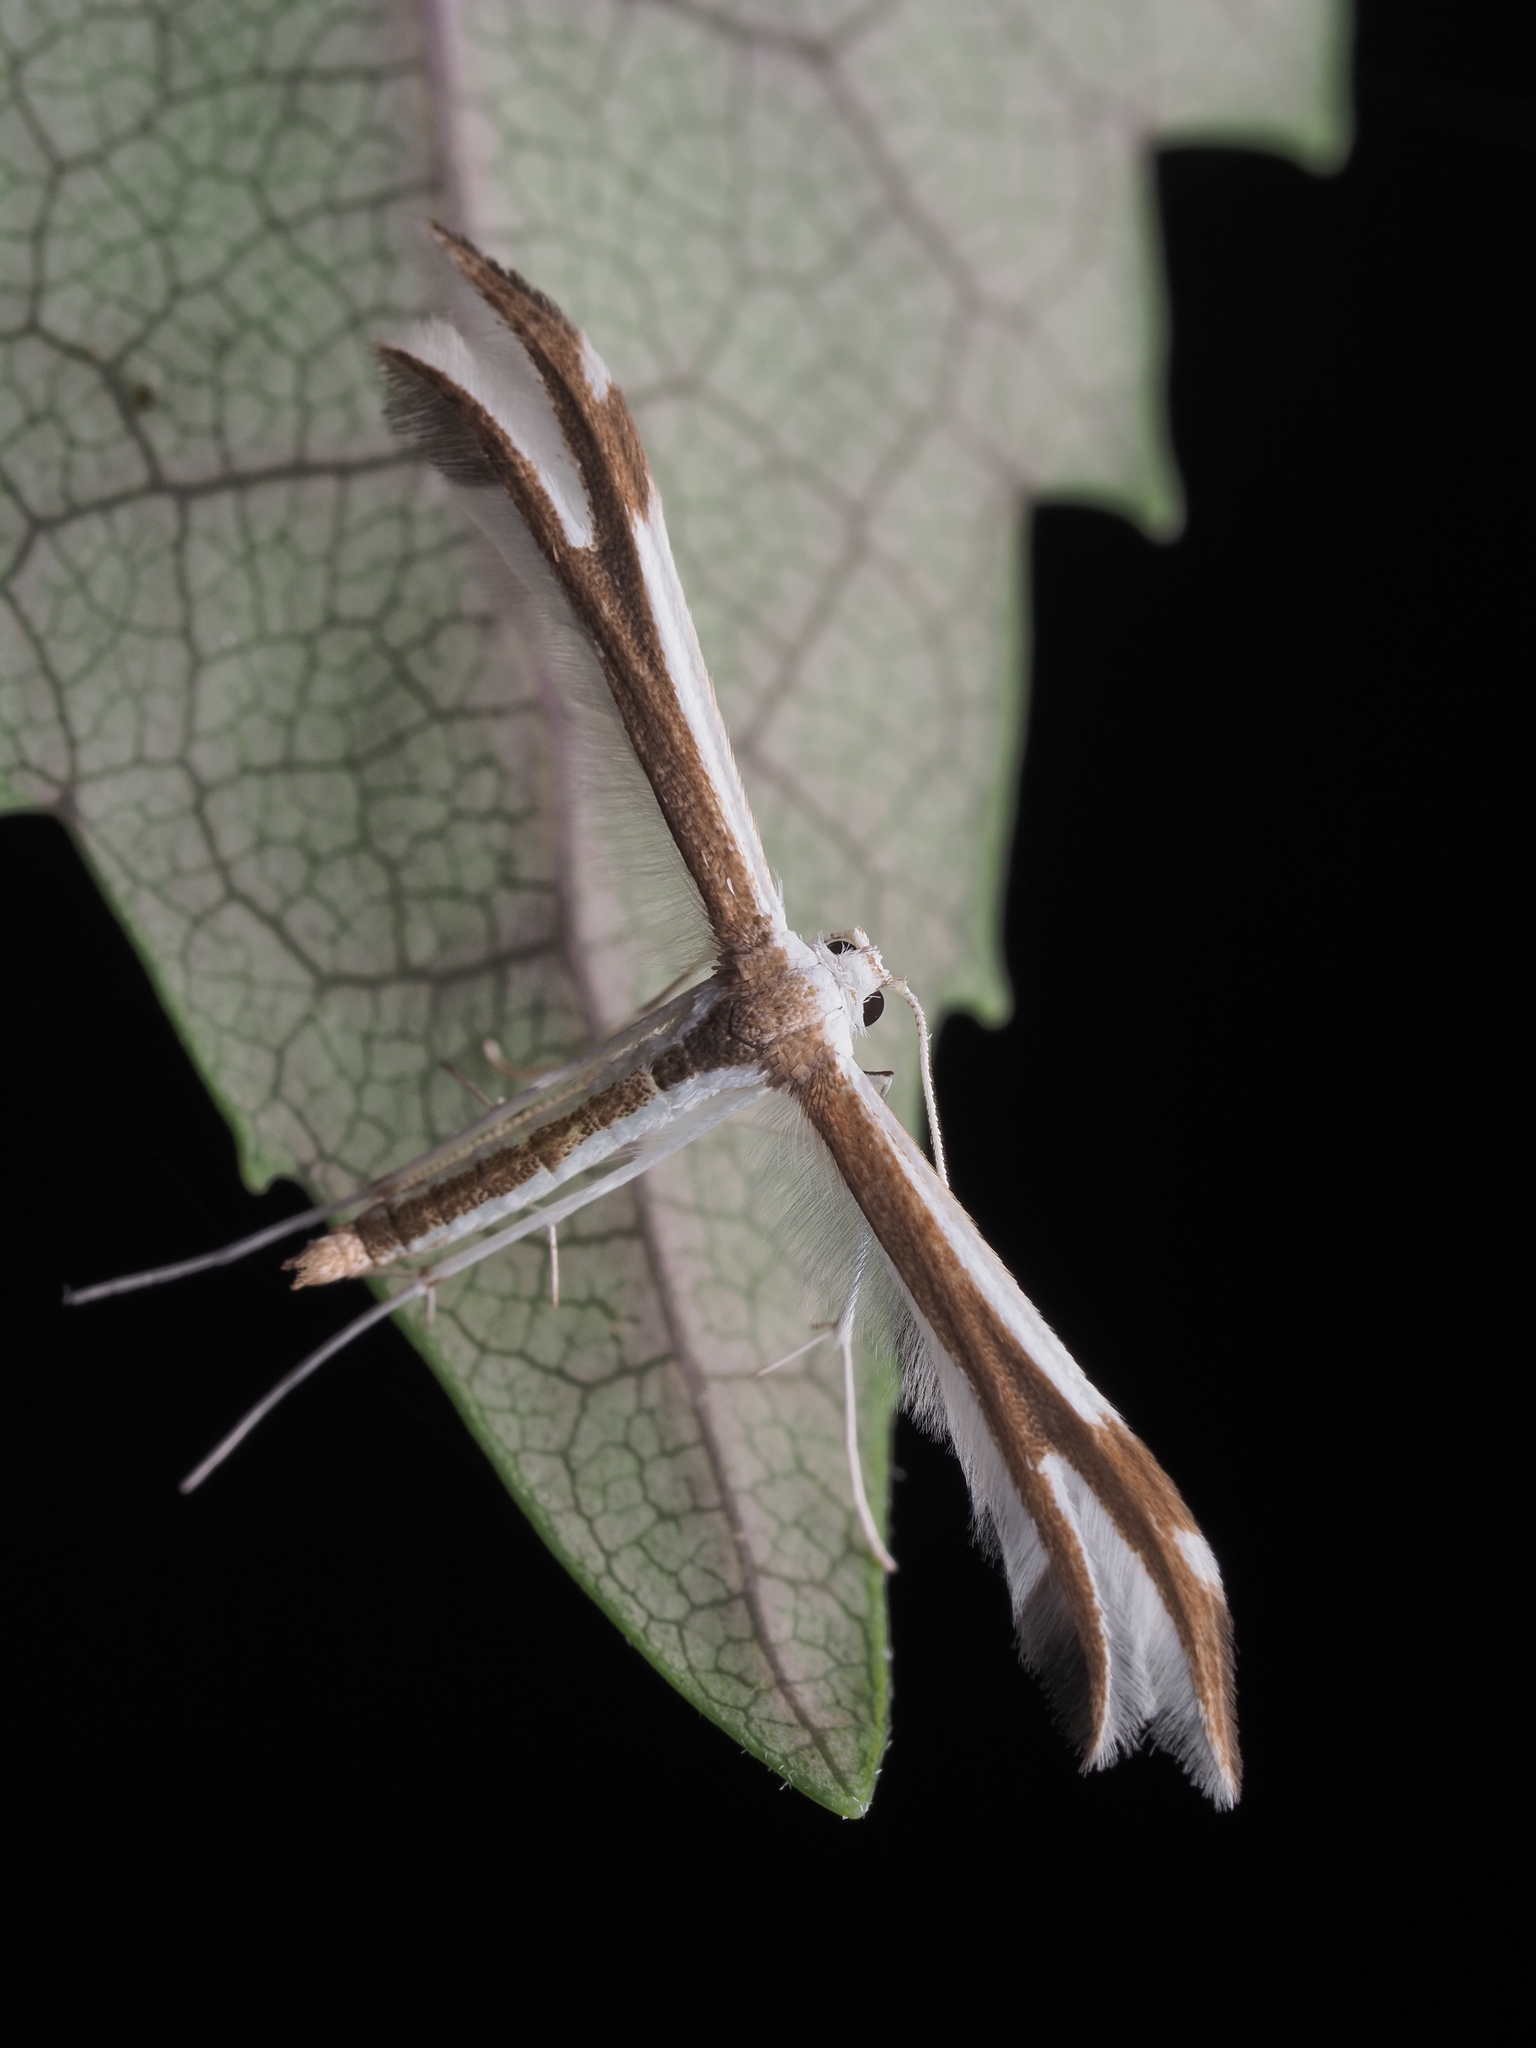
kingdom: Animalia
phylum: Arthropoda
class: Insecta
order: Lepidoptera
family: Pterophoridae
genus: Pterophorus
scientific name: Pterophorus furcatalis
